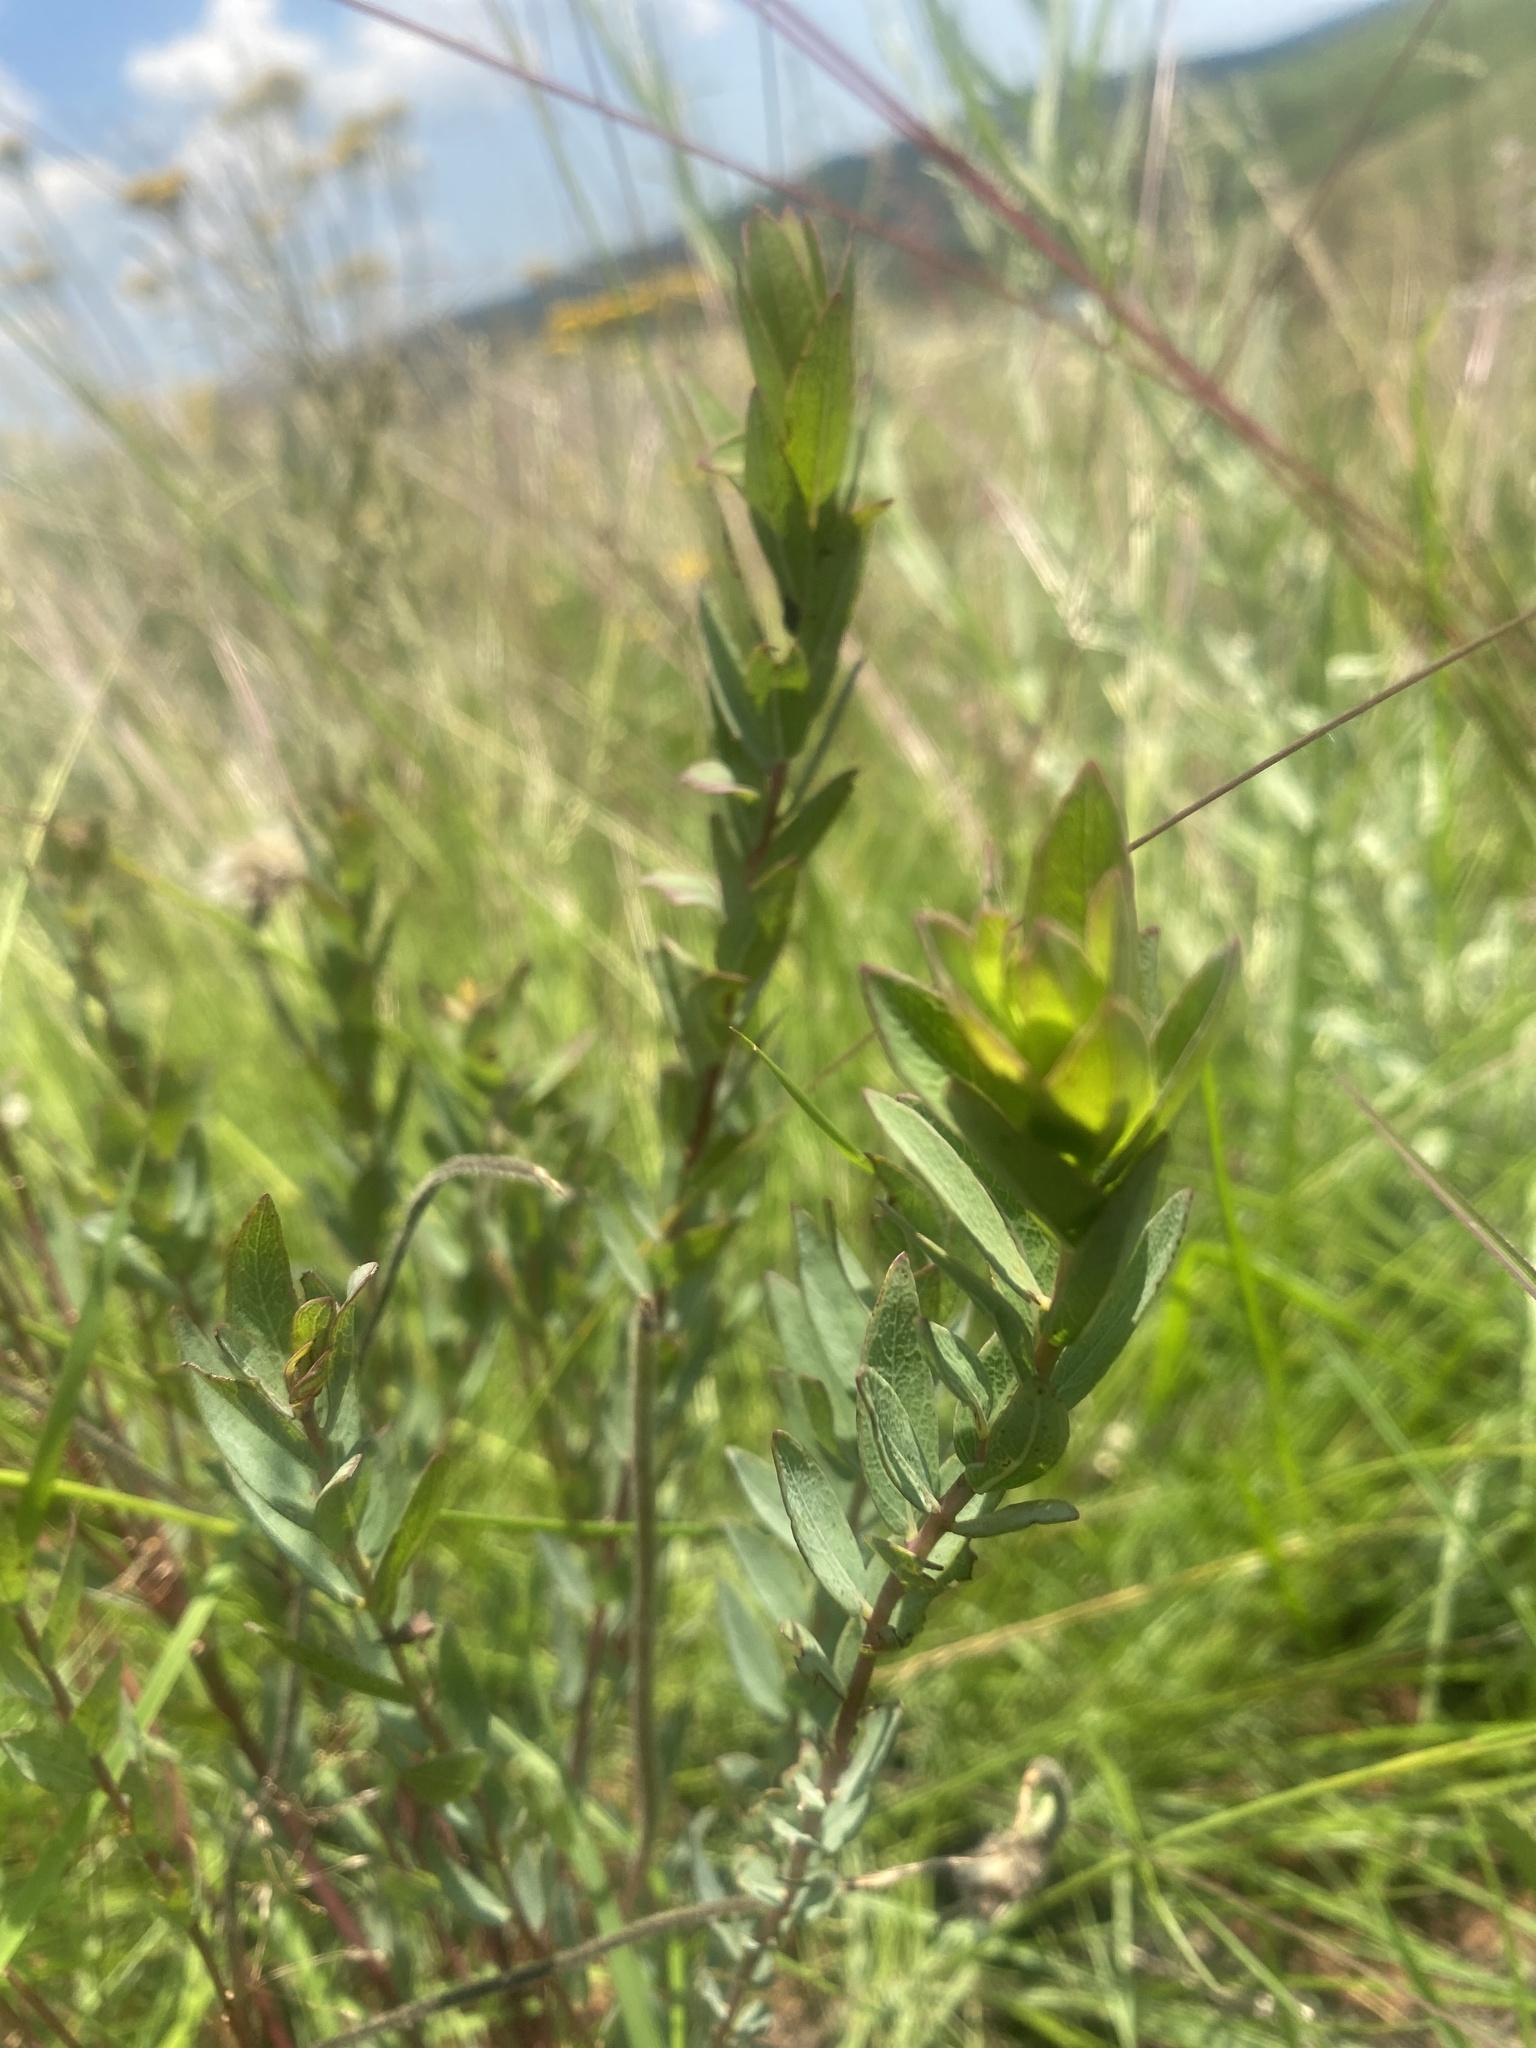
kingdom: Plantae
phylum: Tracheophyta
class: Magnoliopsida
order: Malvales
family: Thymelaeaceae
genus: Gnidia
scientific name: Gnidia kraussiana
